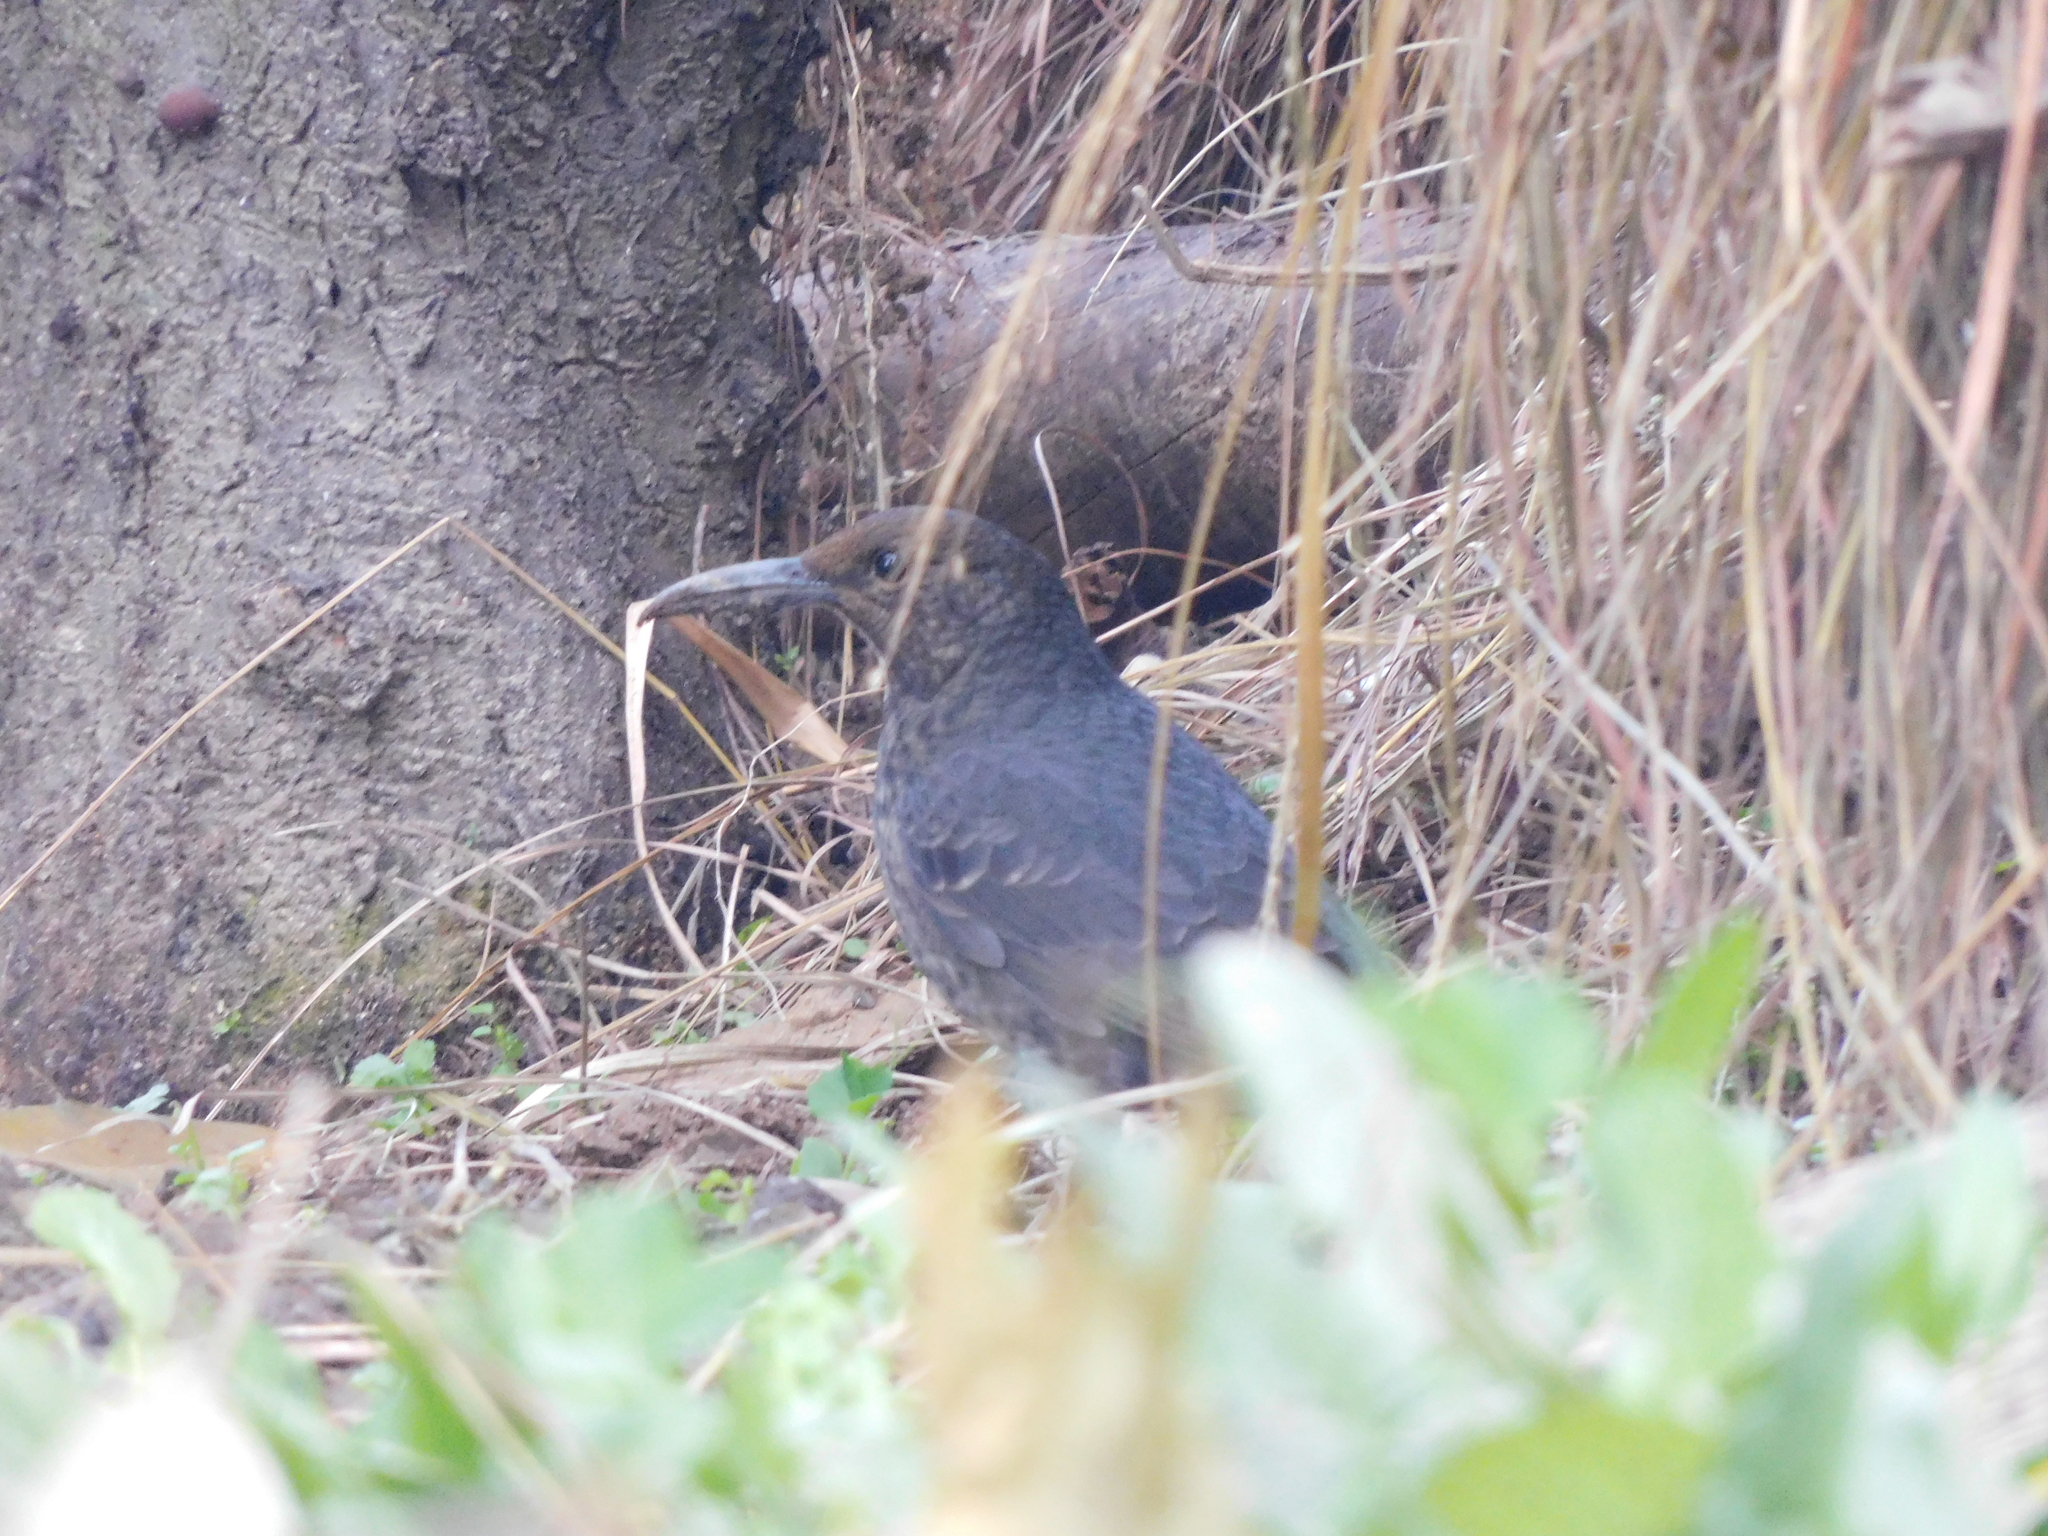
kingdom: Animalia
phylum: Chordata
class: Aves
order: Passeriformes
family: Turdidae
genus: Zoothera
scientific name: Zoothera monticola
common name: Long-billed thrush
